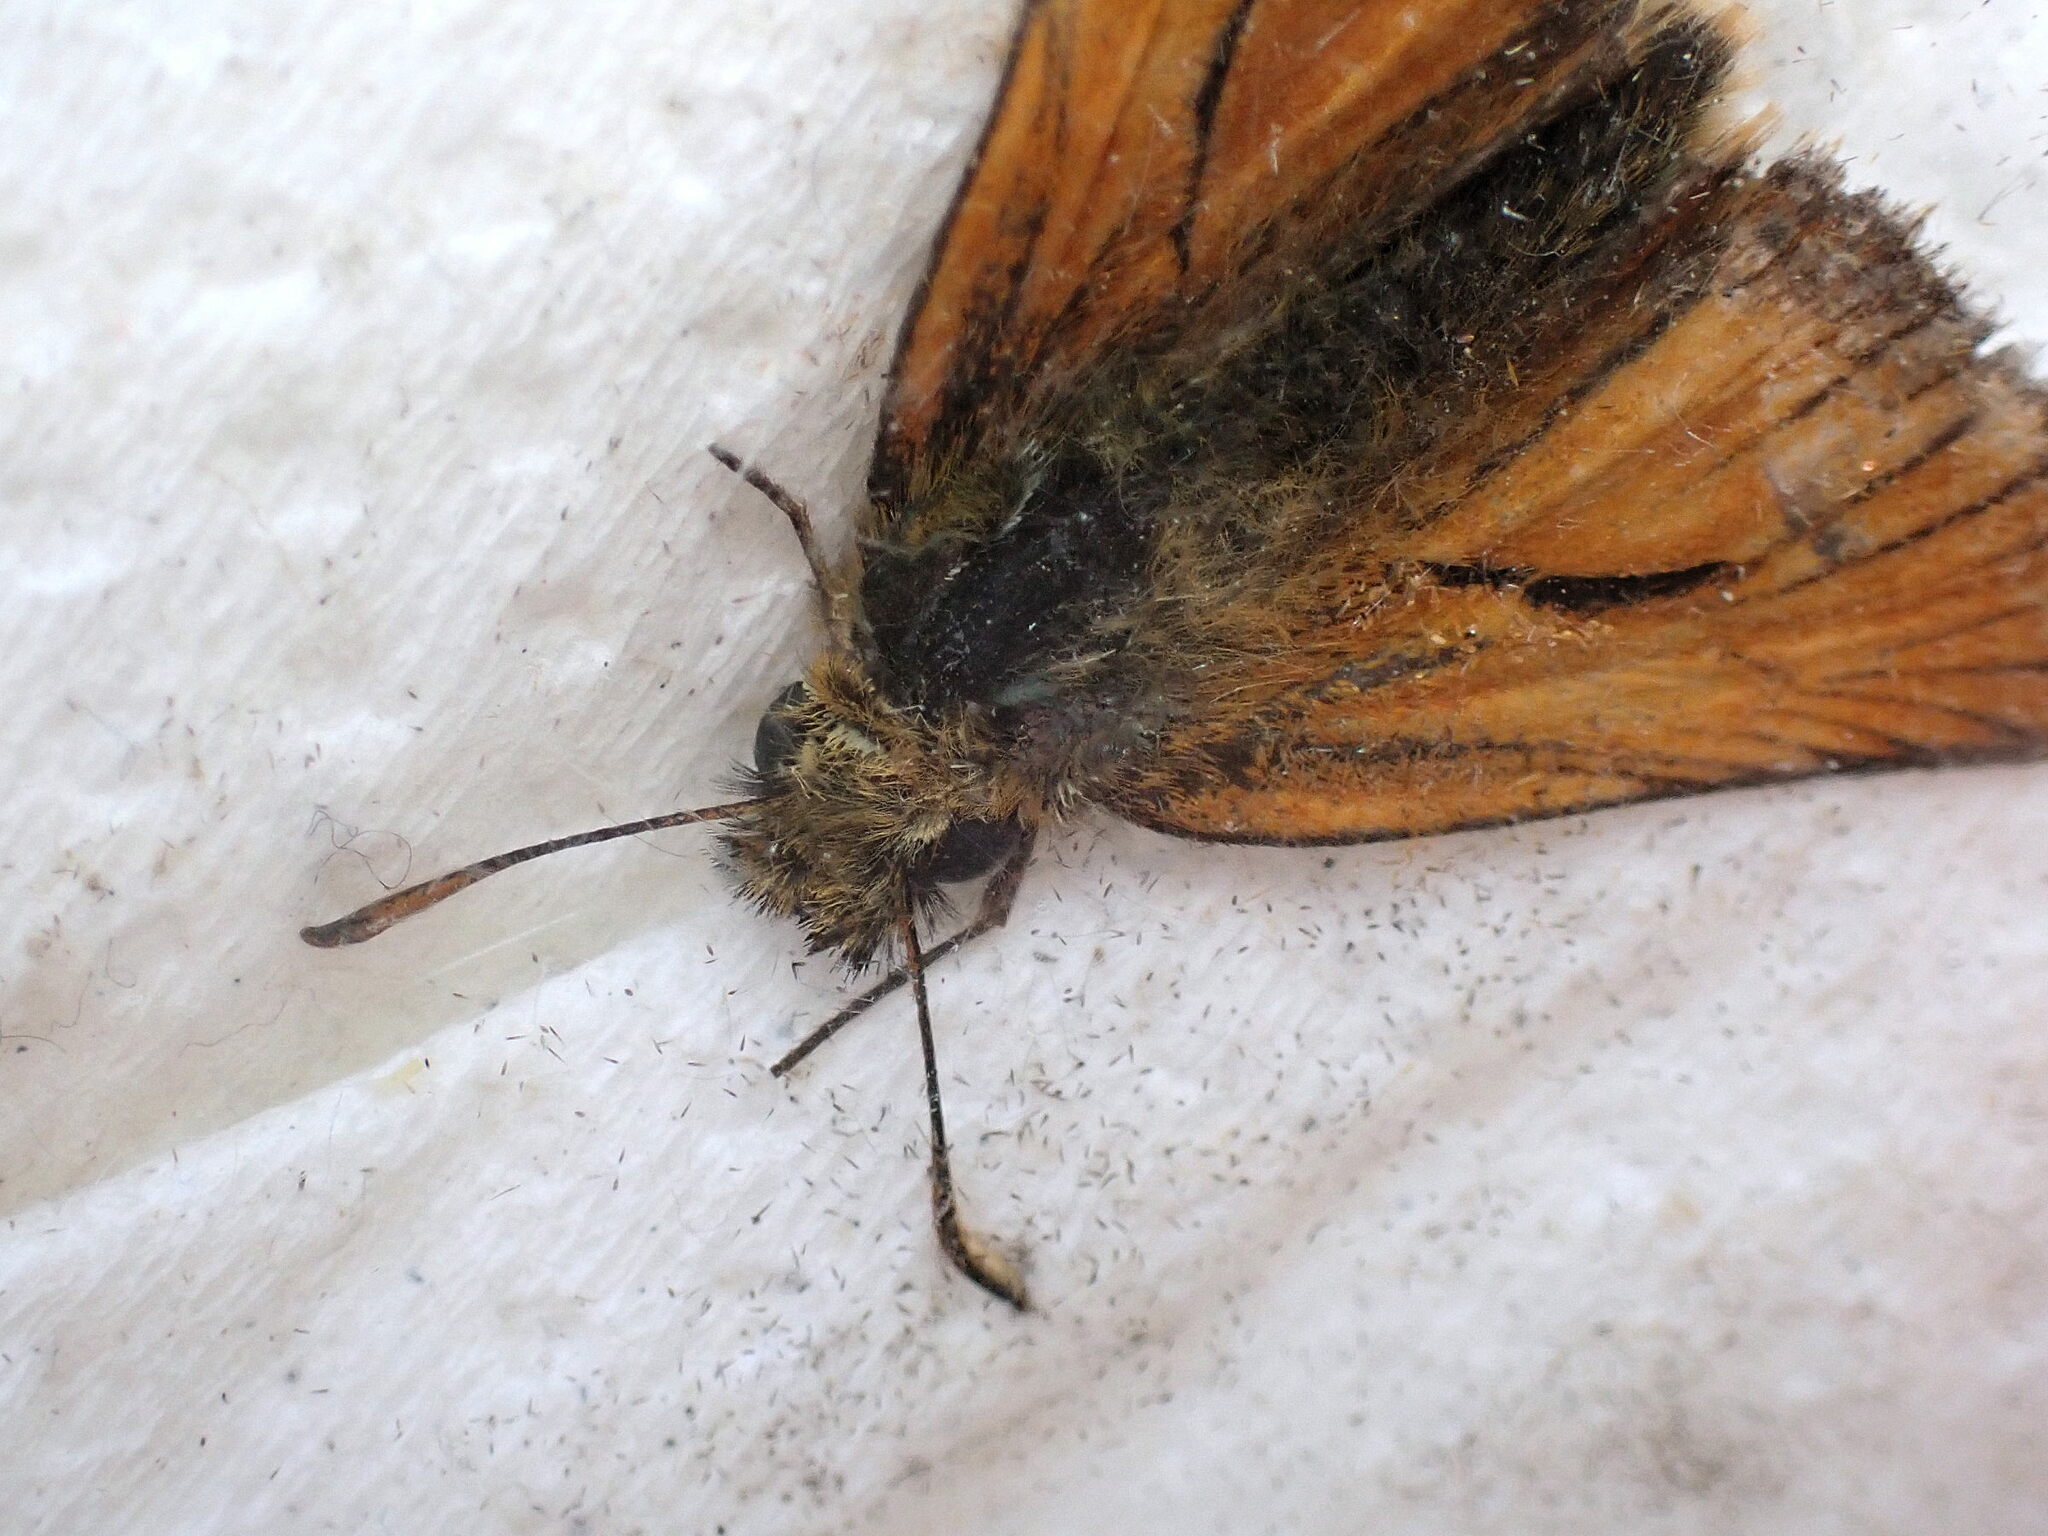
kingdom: Animalia
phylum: Arthropoda
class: Insecta
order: Lepidoptera
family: Hesperiidae
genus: Thymelicus
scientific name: Thymelicus sylvestris
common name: Small skipper
